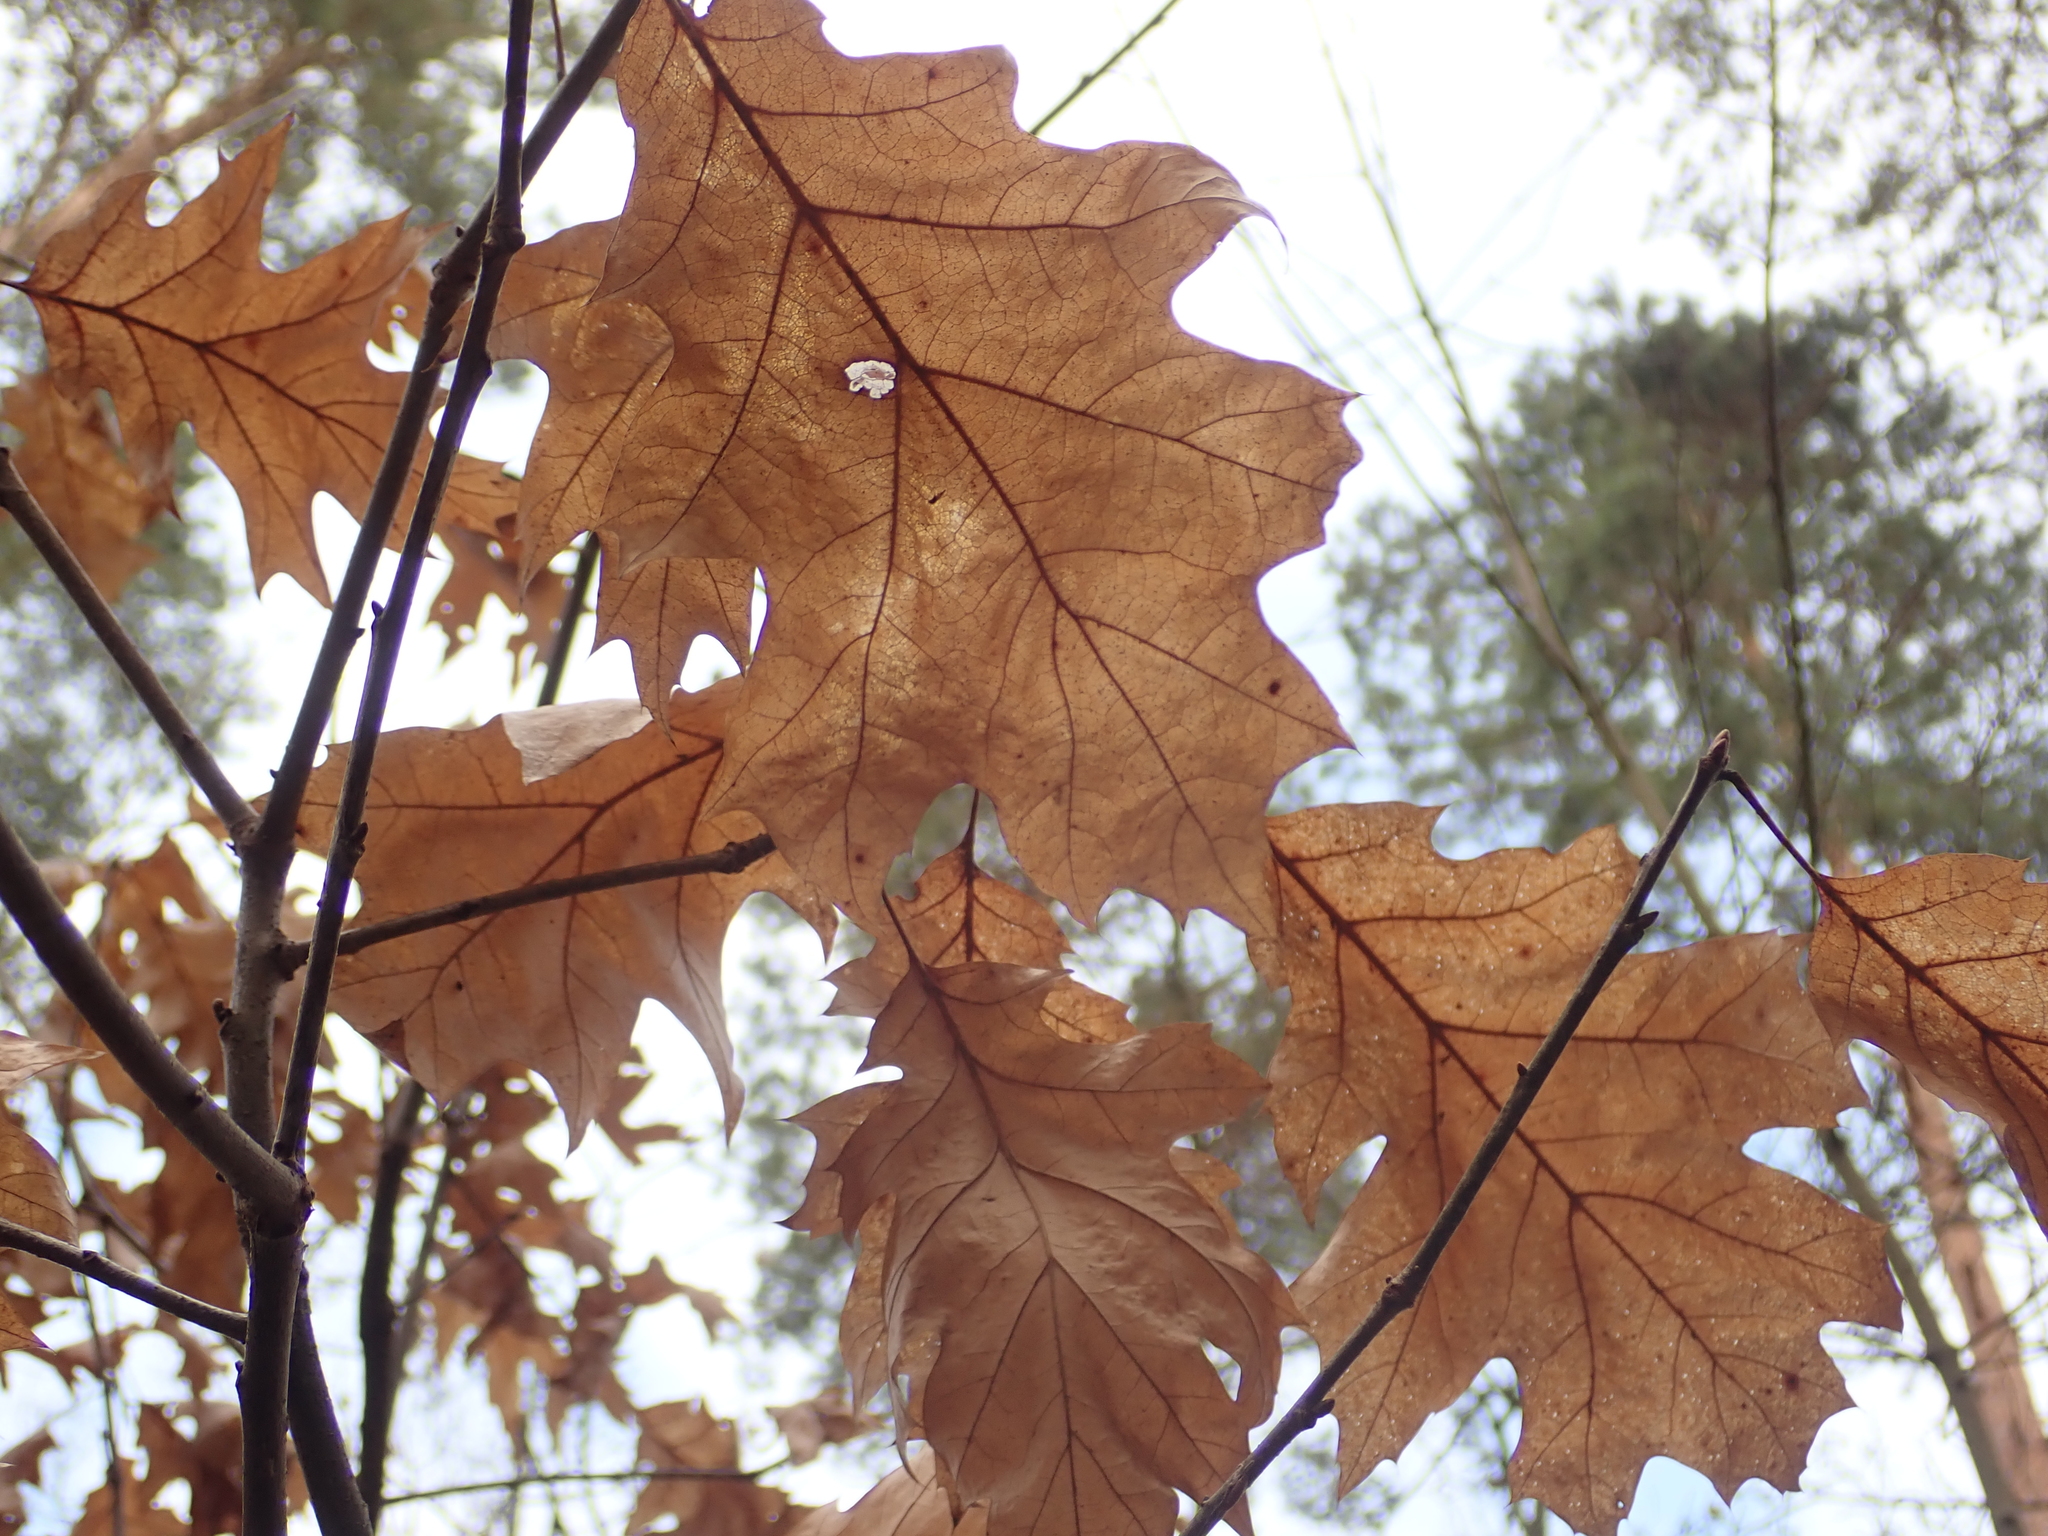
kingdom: Plantae
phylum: Tracheophyta
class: Magnoliopsida
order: Fagales
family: Fagaceae
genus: Quercus
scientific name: Quercus rubra
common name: Red oak
